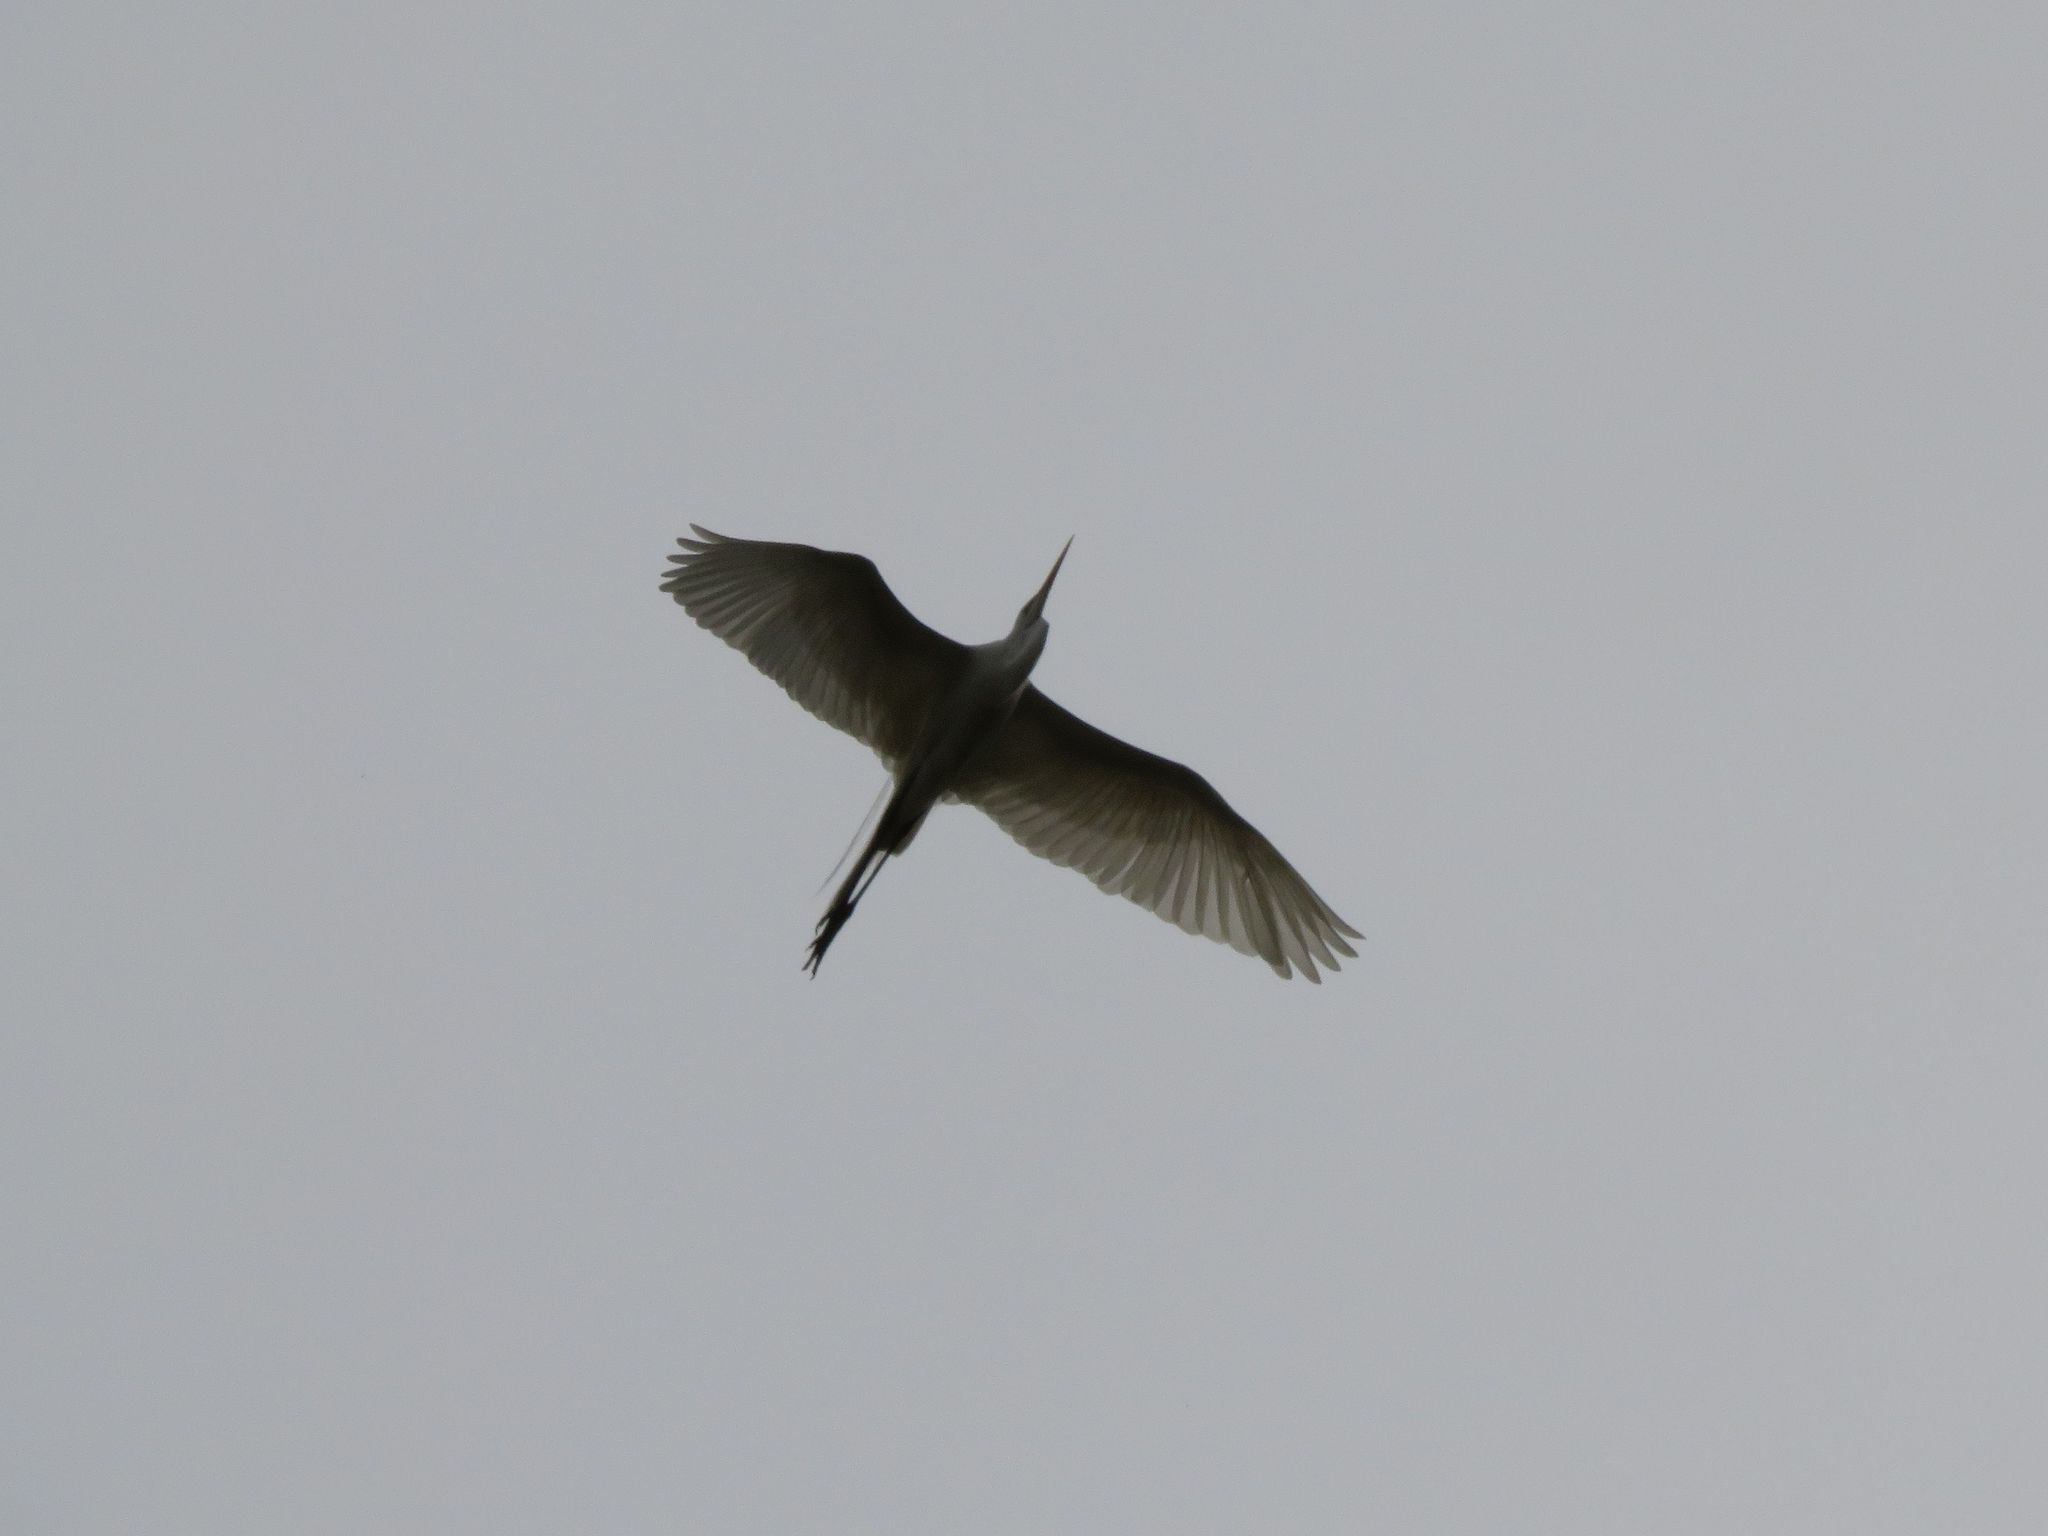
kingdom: Animalia
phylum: Chordata
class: Aves
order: Pelecaniformes
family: Ardeidae
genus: Ardea
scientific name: Ardea alba
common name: Great egret
